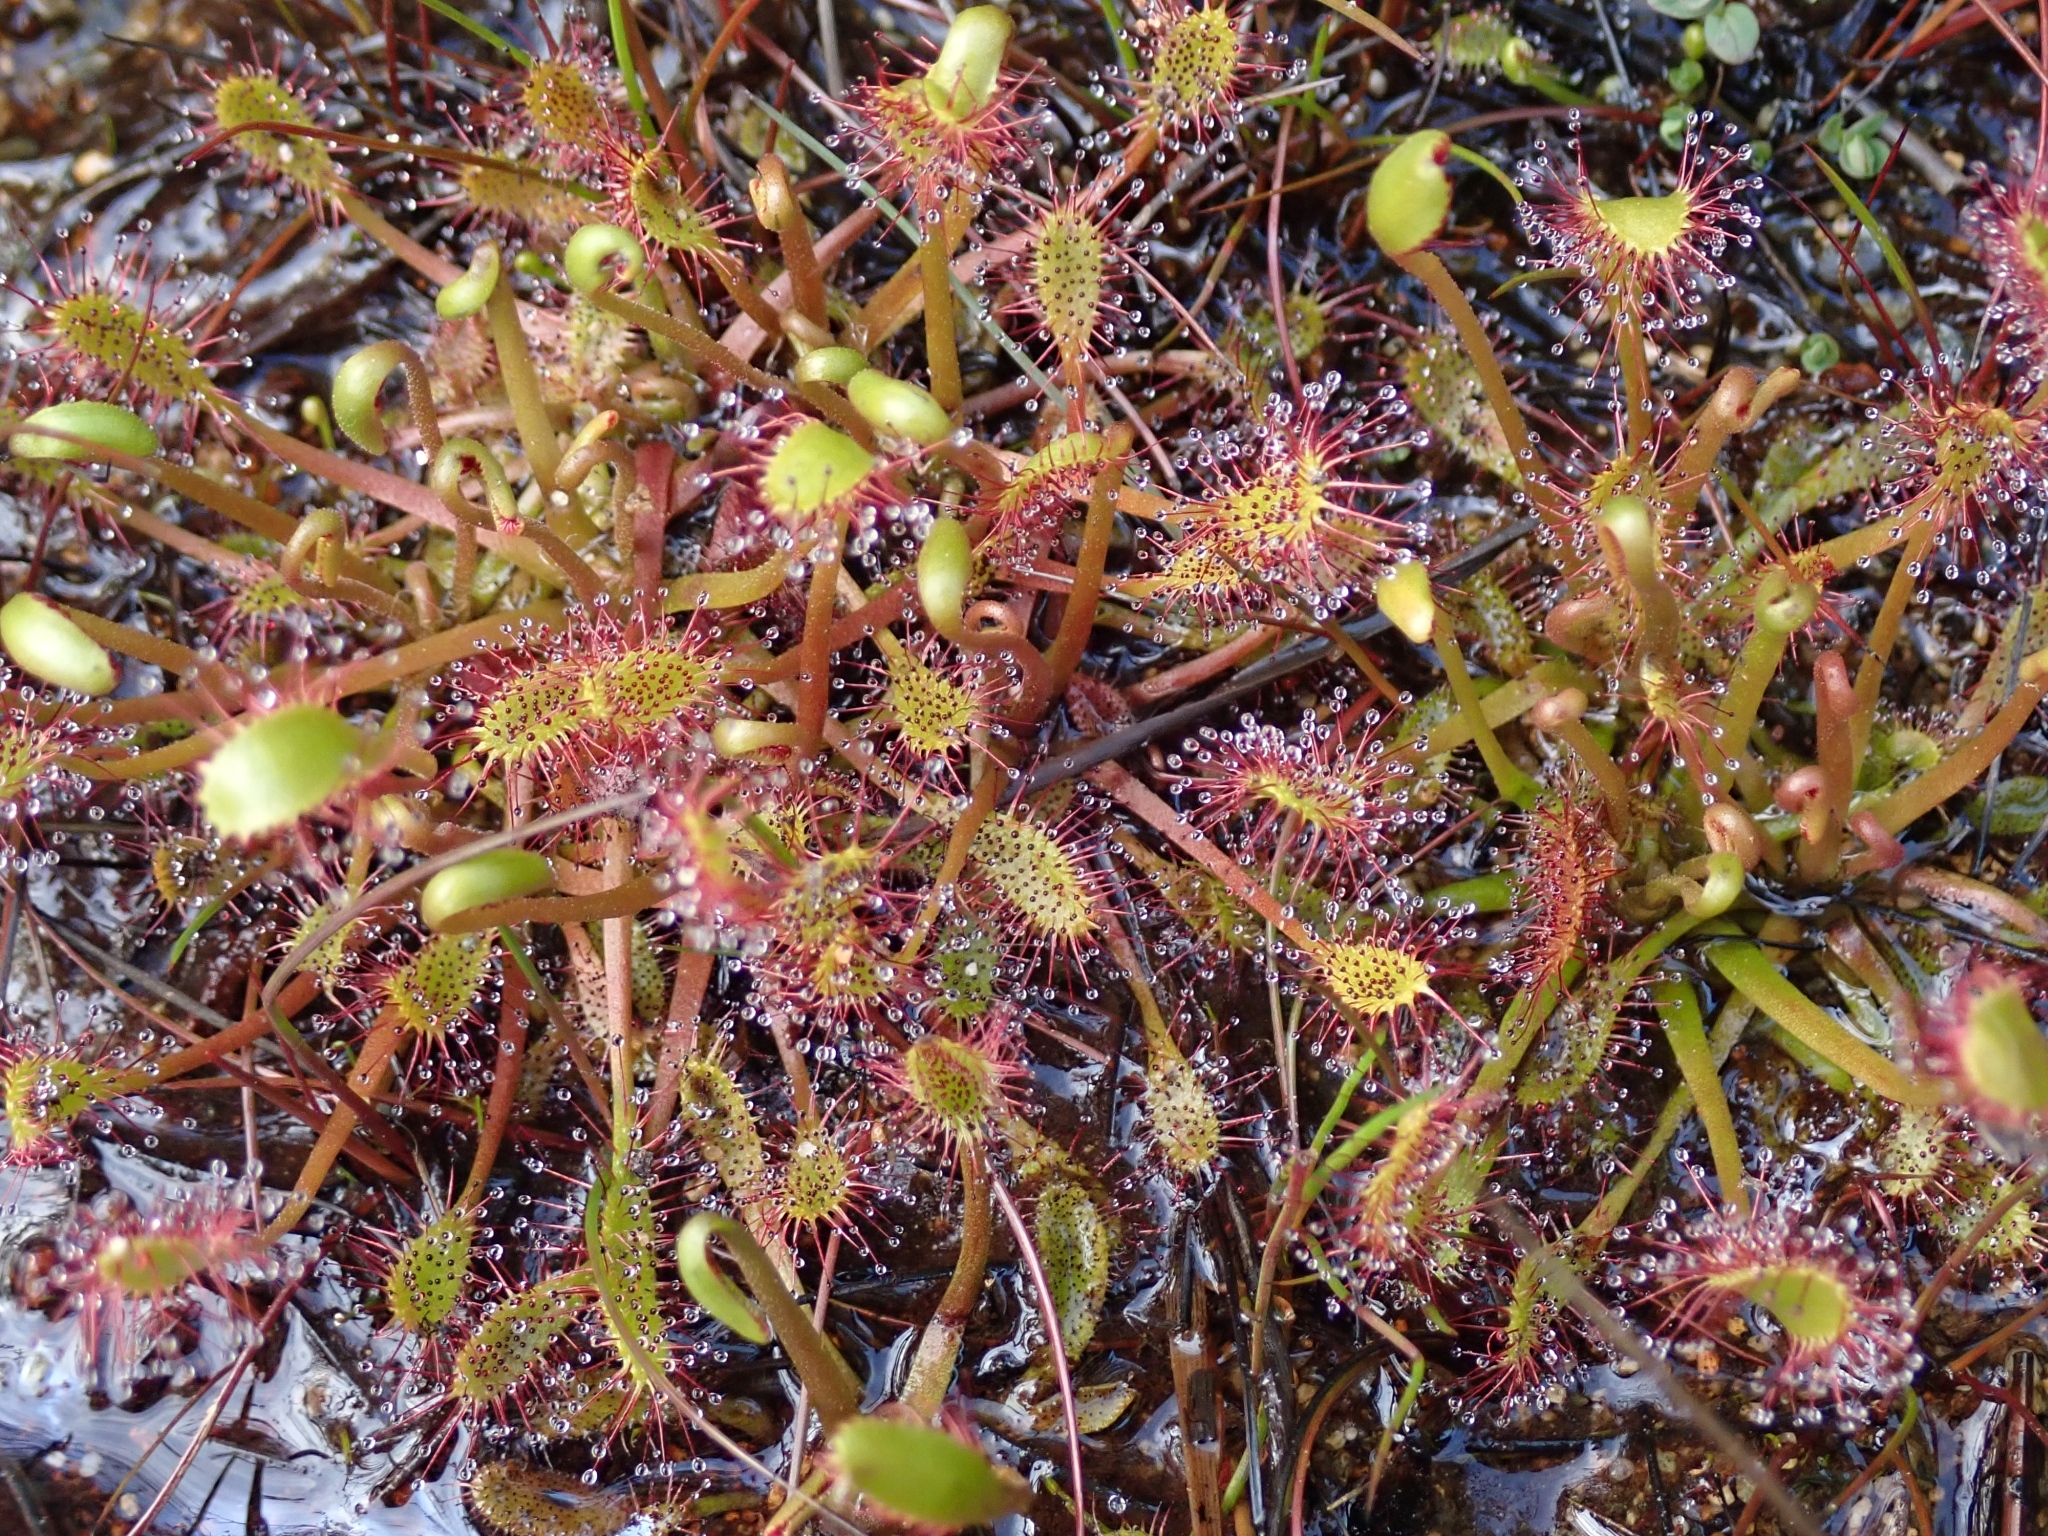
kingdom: Plantae
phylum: Tracheophyta
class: Magnoliopsida
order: Caryophyllales
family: Droseraceae
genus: Drosera
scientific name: Drosera anglica
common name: Great sundew
